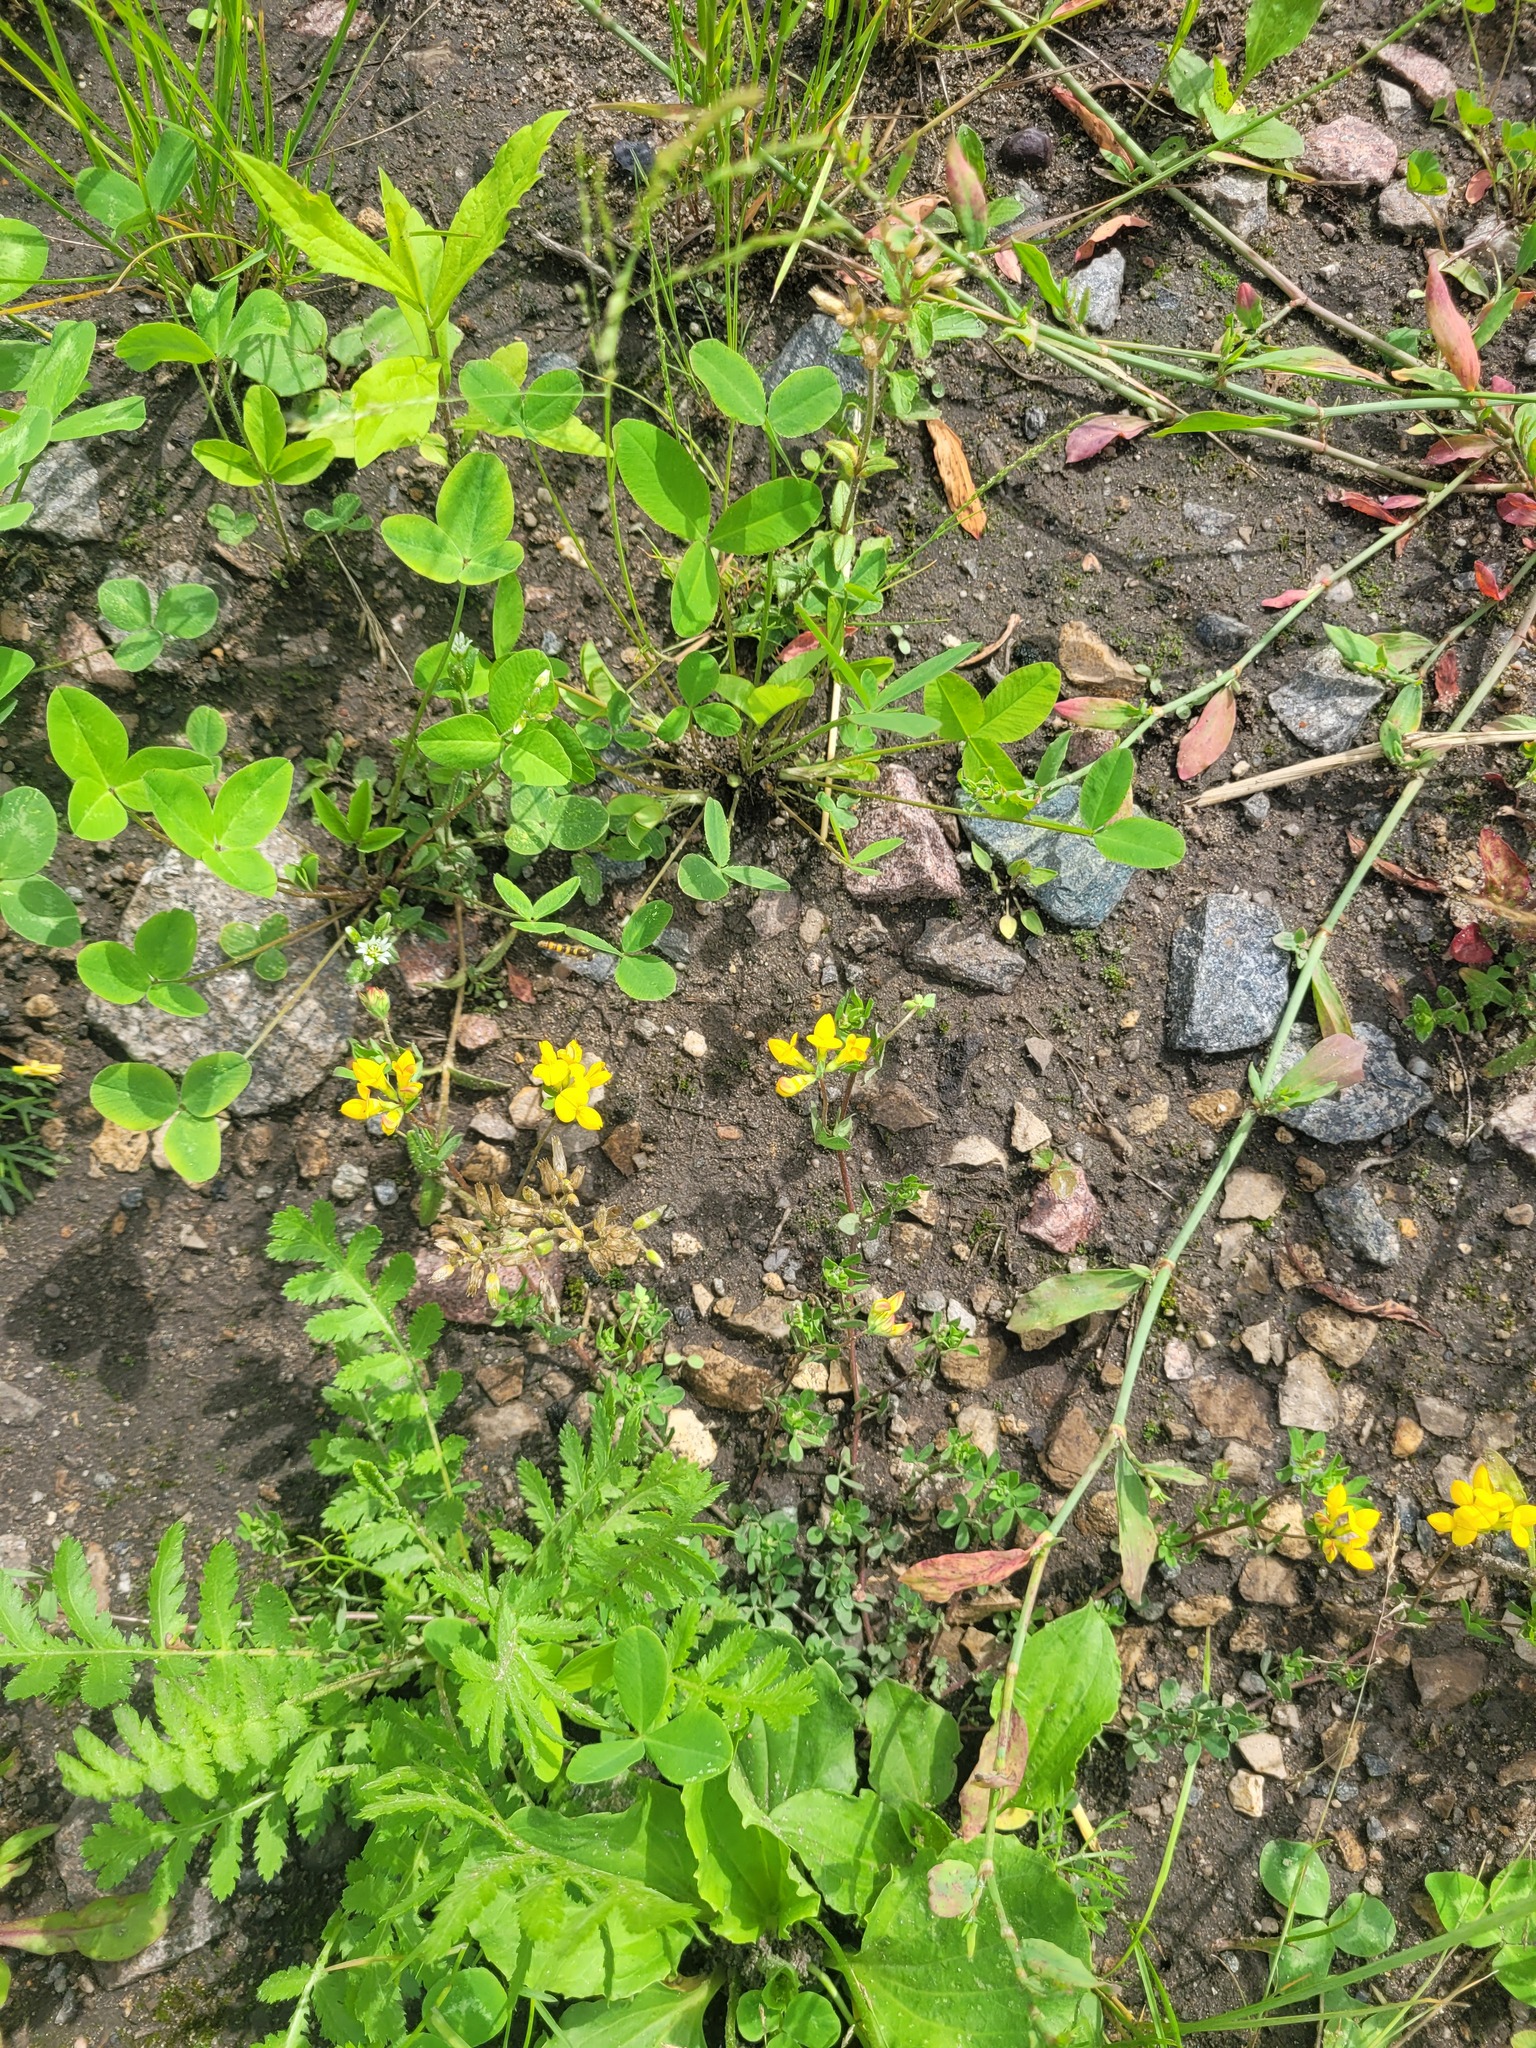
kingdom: Plantae
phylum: Tracheophyta
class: Magnoliopsida
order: Fabales
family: Fabaceae
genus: Lotus
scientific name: Lotus corniculatus
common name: Common bird's-foot-trefoil
